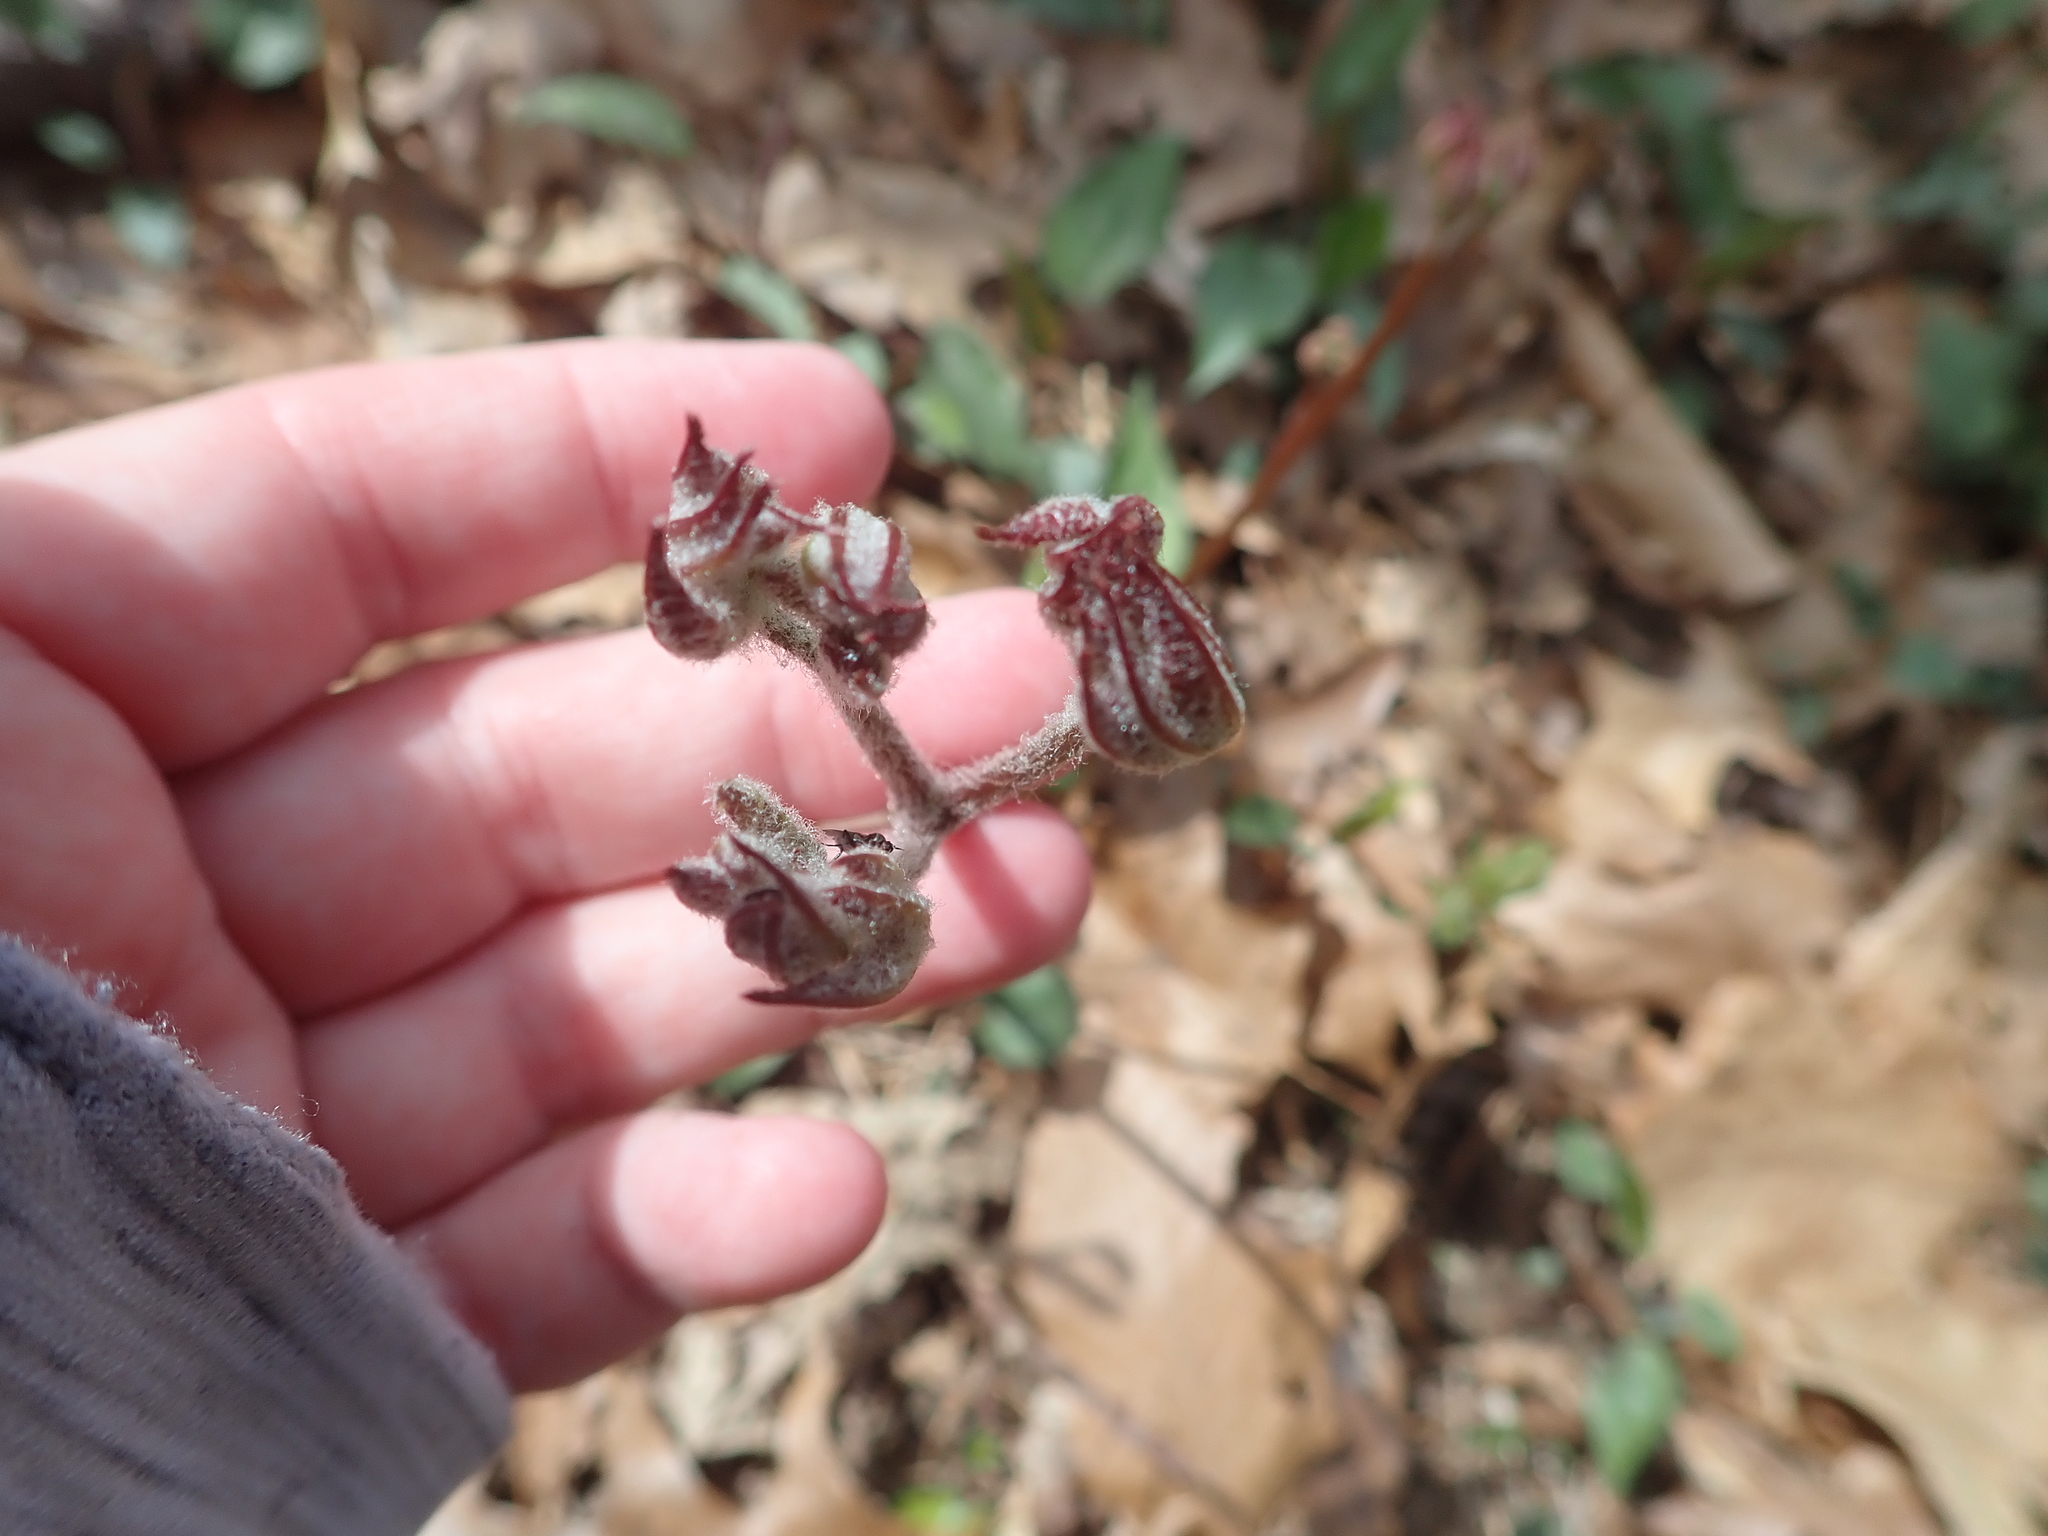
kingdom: Plantae
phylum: Tracheophyta
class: Magnoliopsida
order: Apiales
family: Araliaceae
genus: Aralia
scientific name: Aralia nudicaulis
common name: Wild sarsaparilla
